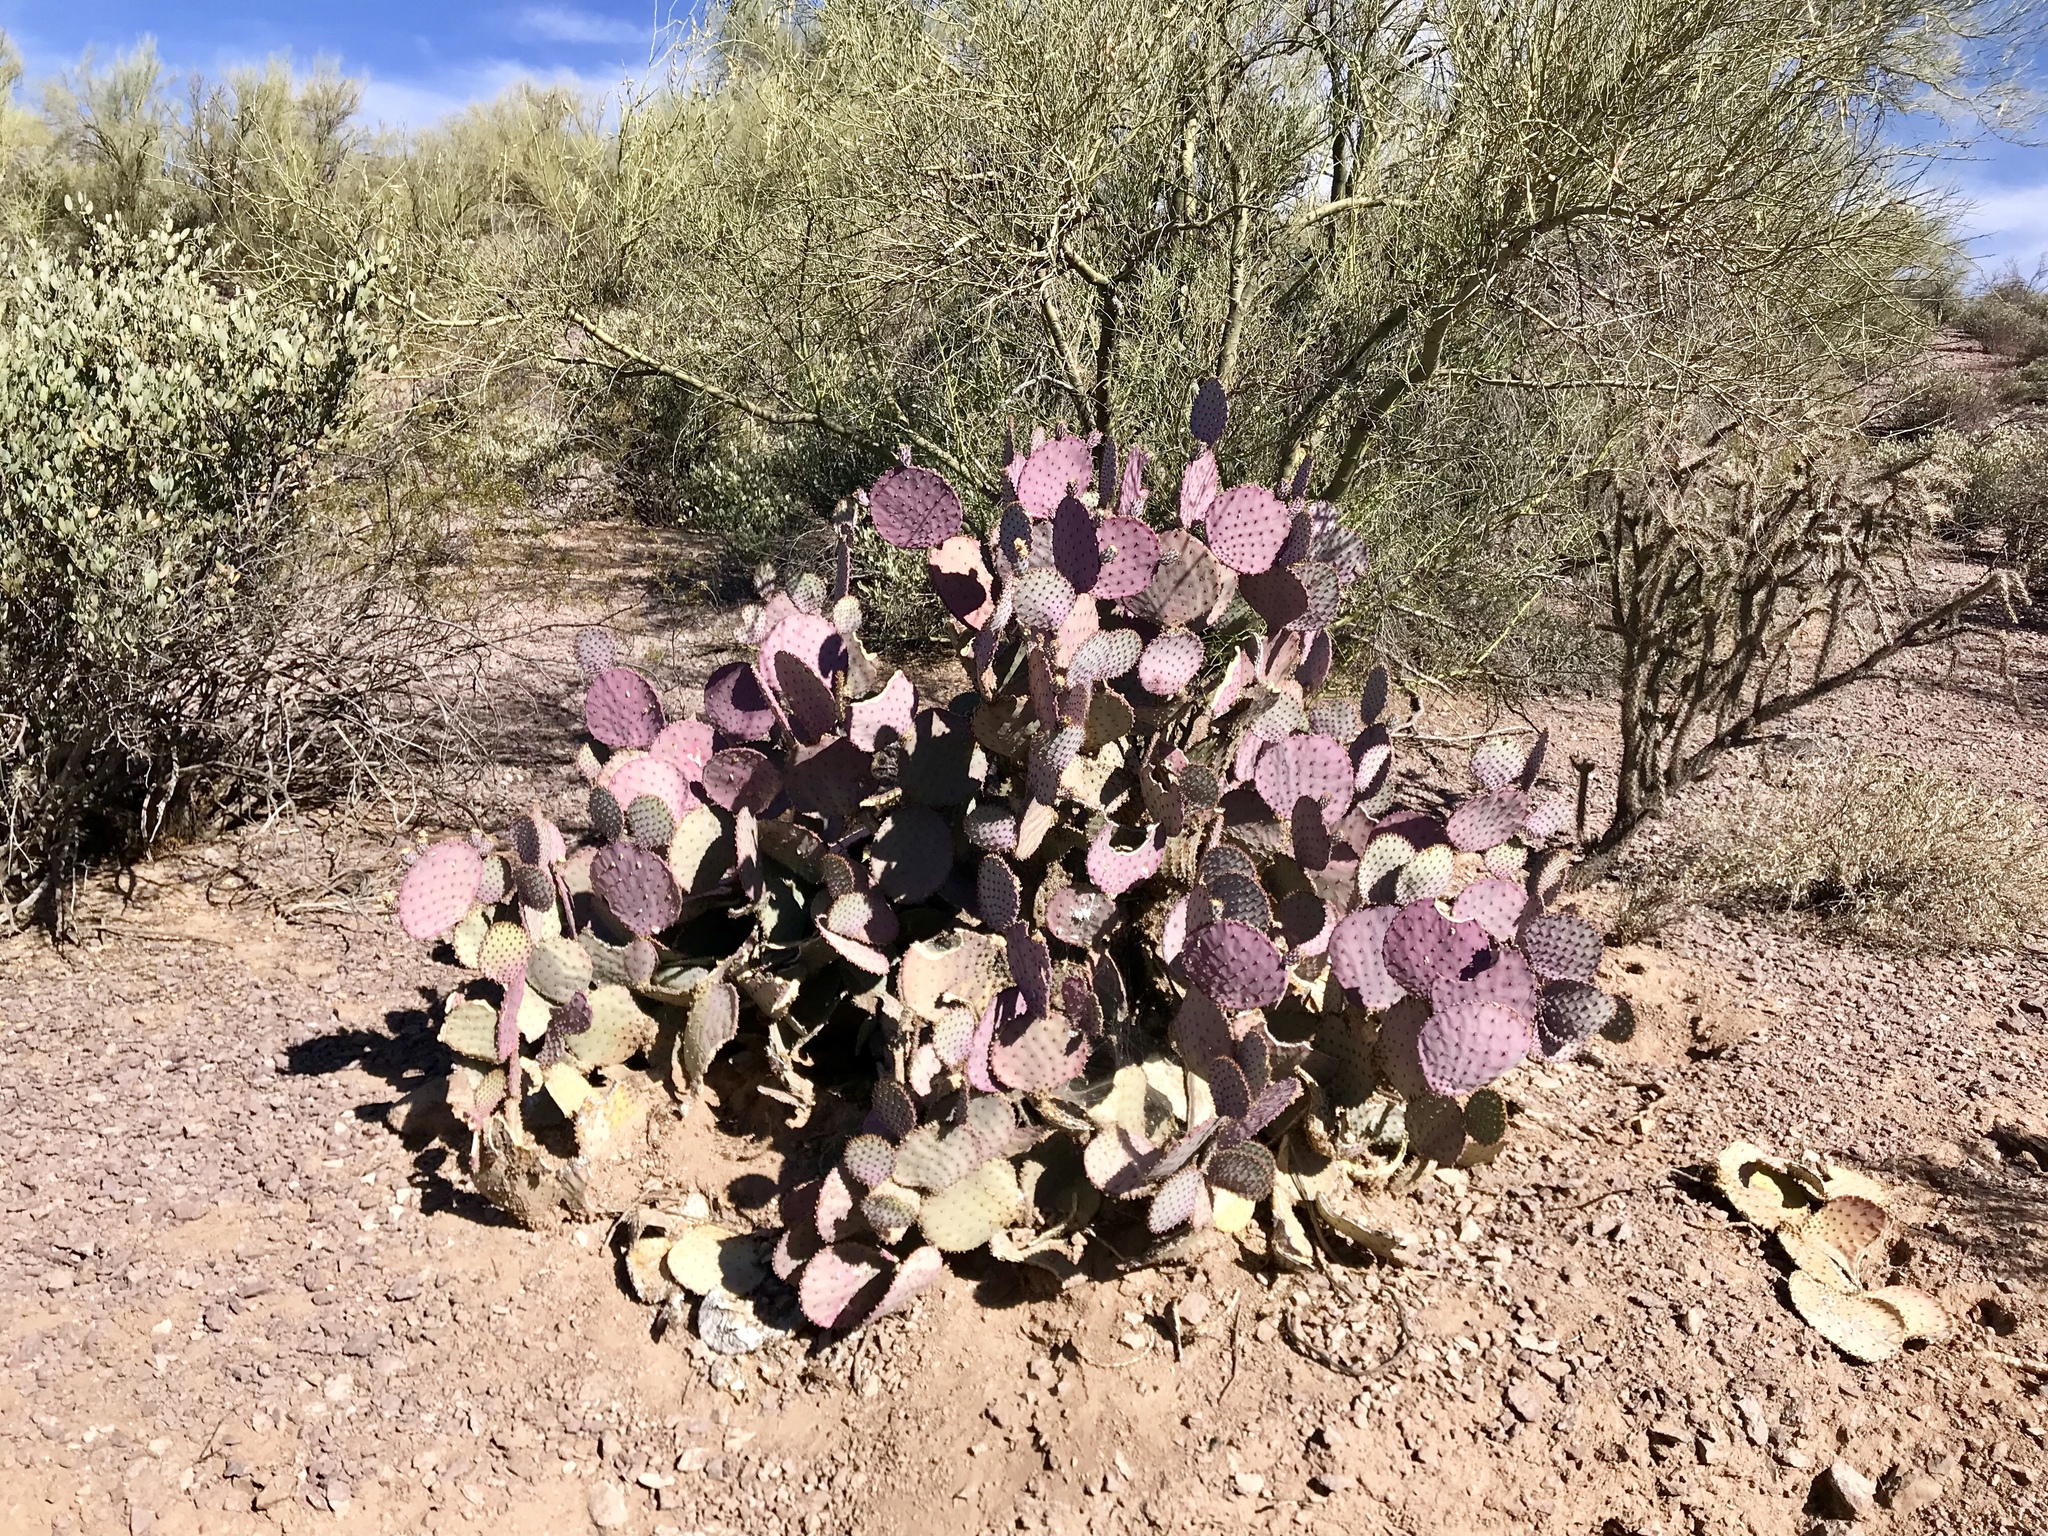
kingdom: Plantae
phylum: Tracheophyta
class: Magnoliopsida
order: Caryophyllales
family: Cactaceae
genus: Opuntia
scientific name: Opuntia gosseliniana
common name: Violet prickly-pear
